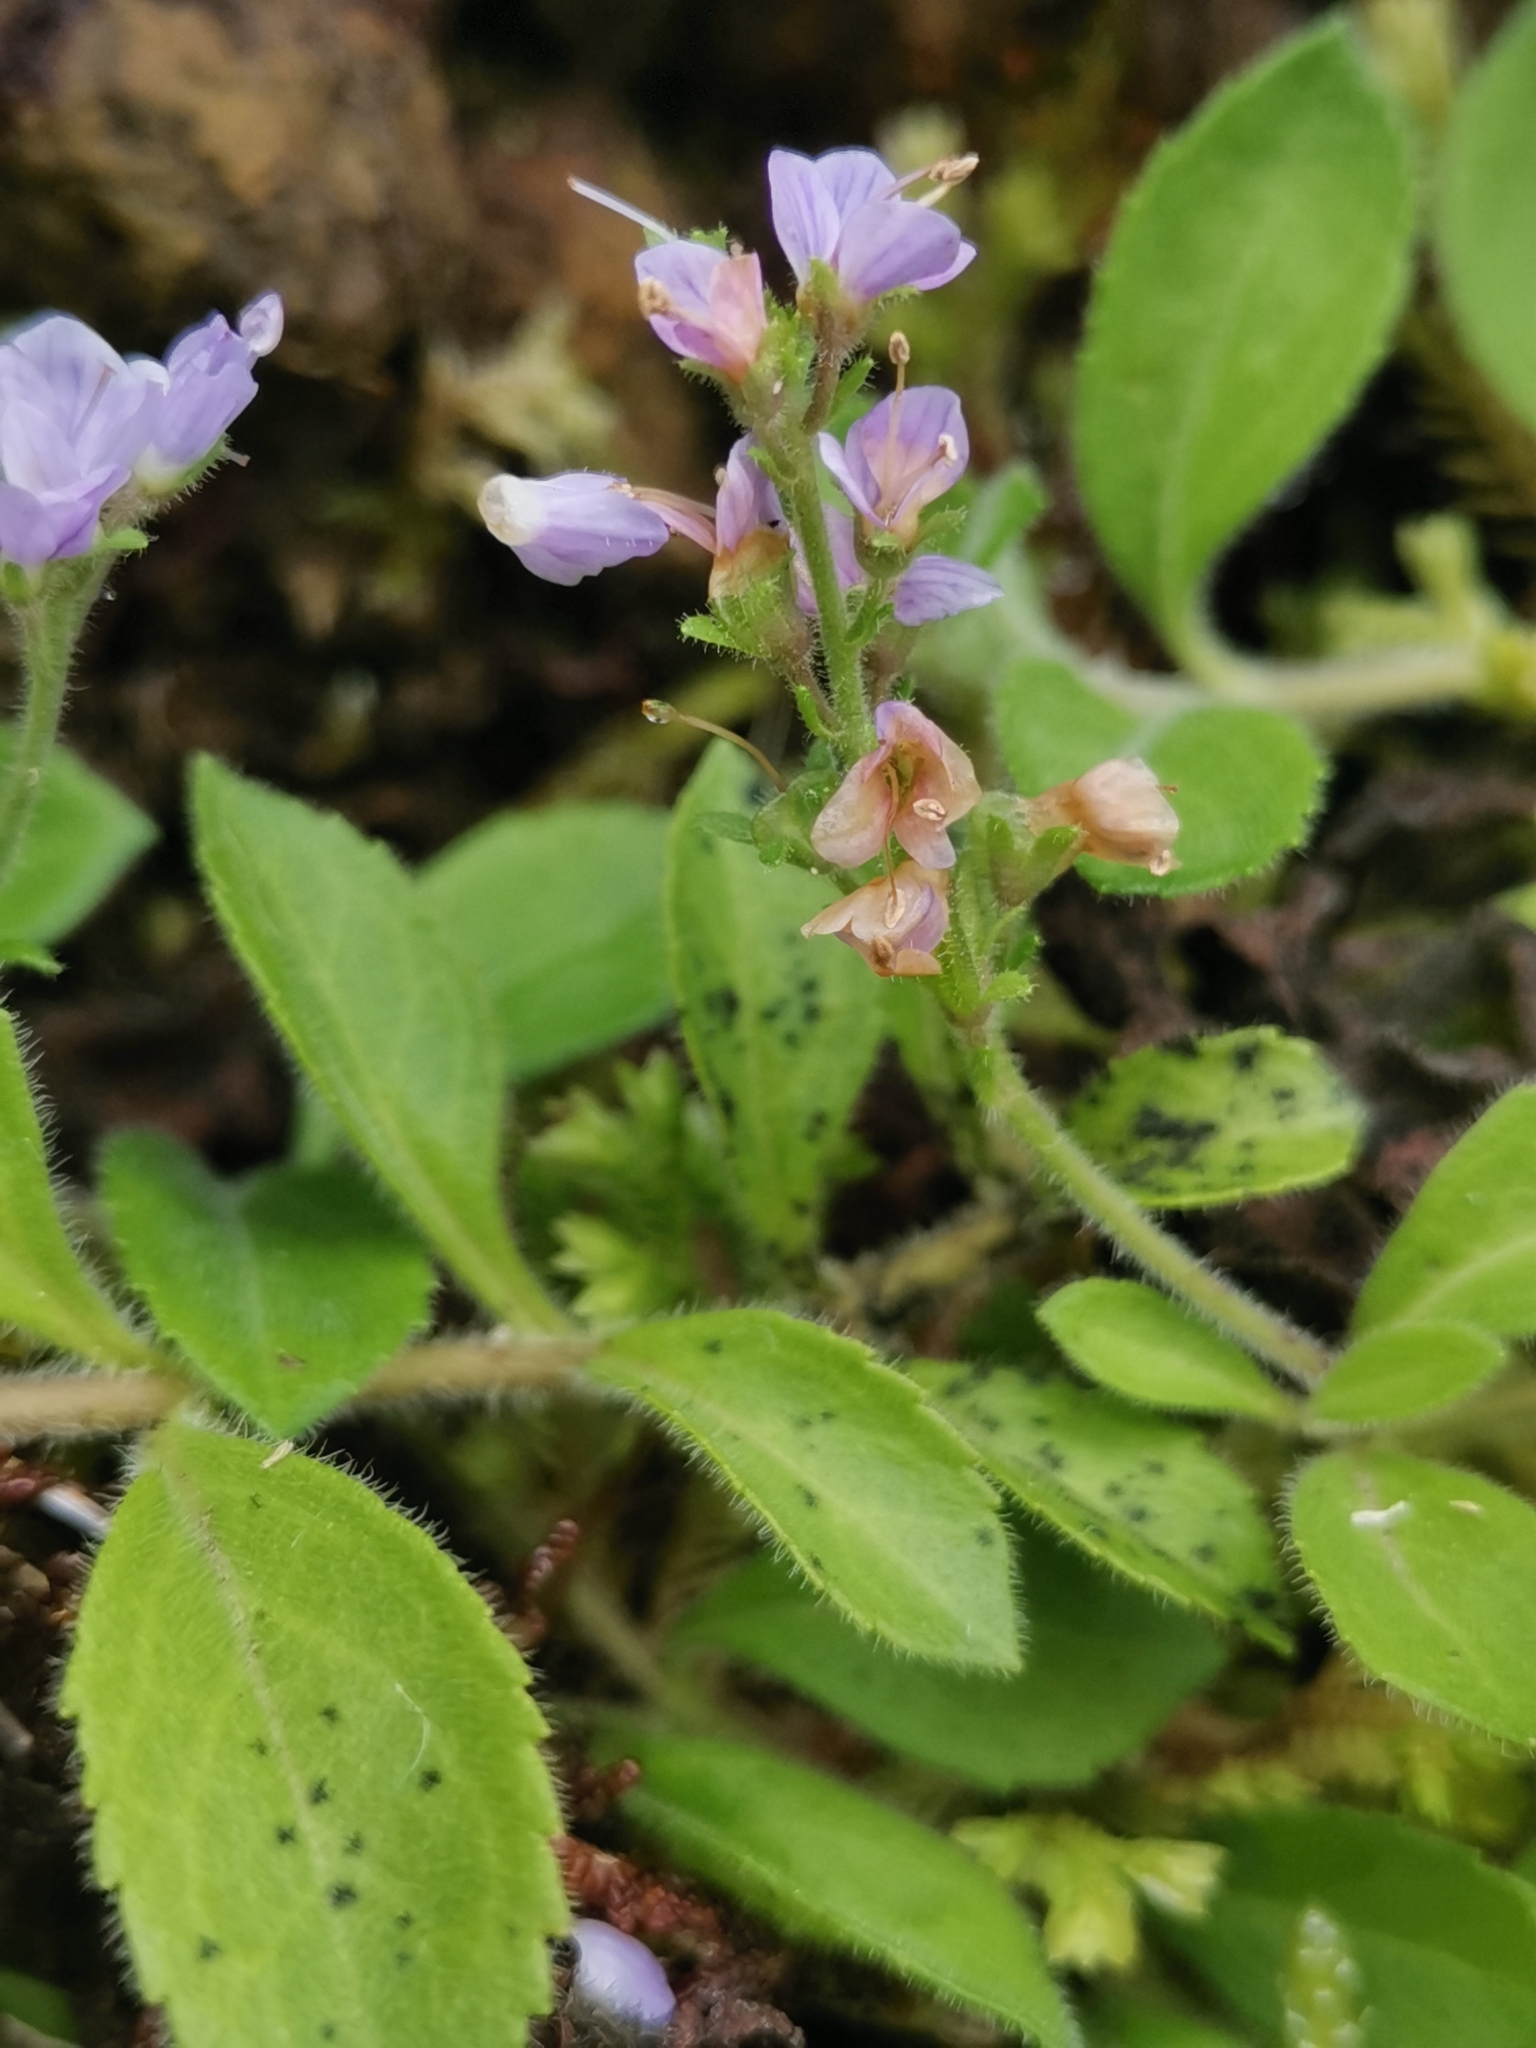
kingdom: Plantae
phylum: Tracheophyta
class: Magnoliopsida
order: Lamiales
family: Plantaginaceae
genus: Veronica
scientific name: Veronica officinalis
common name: Common speedwell
